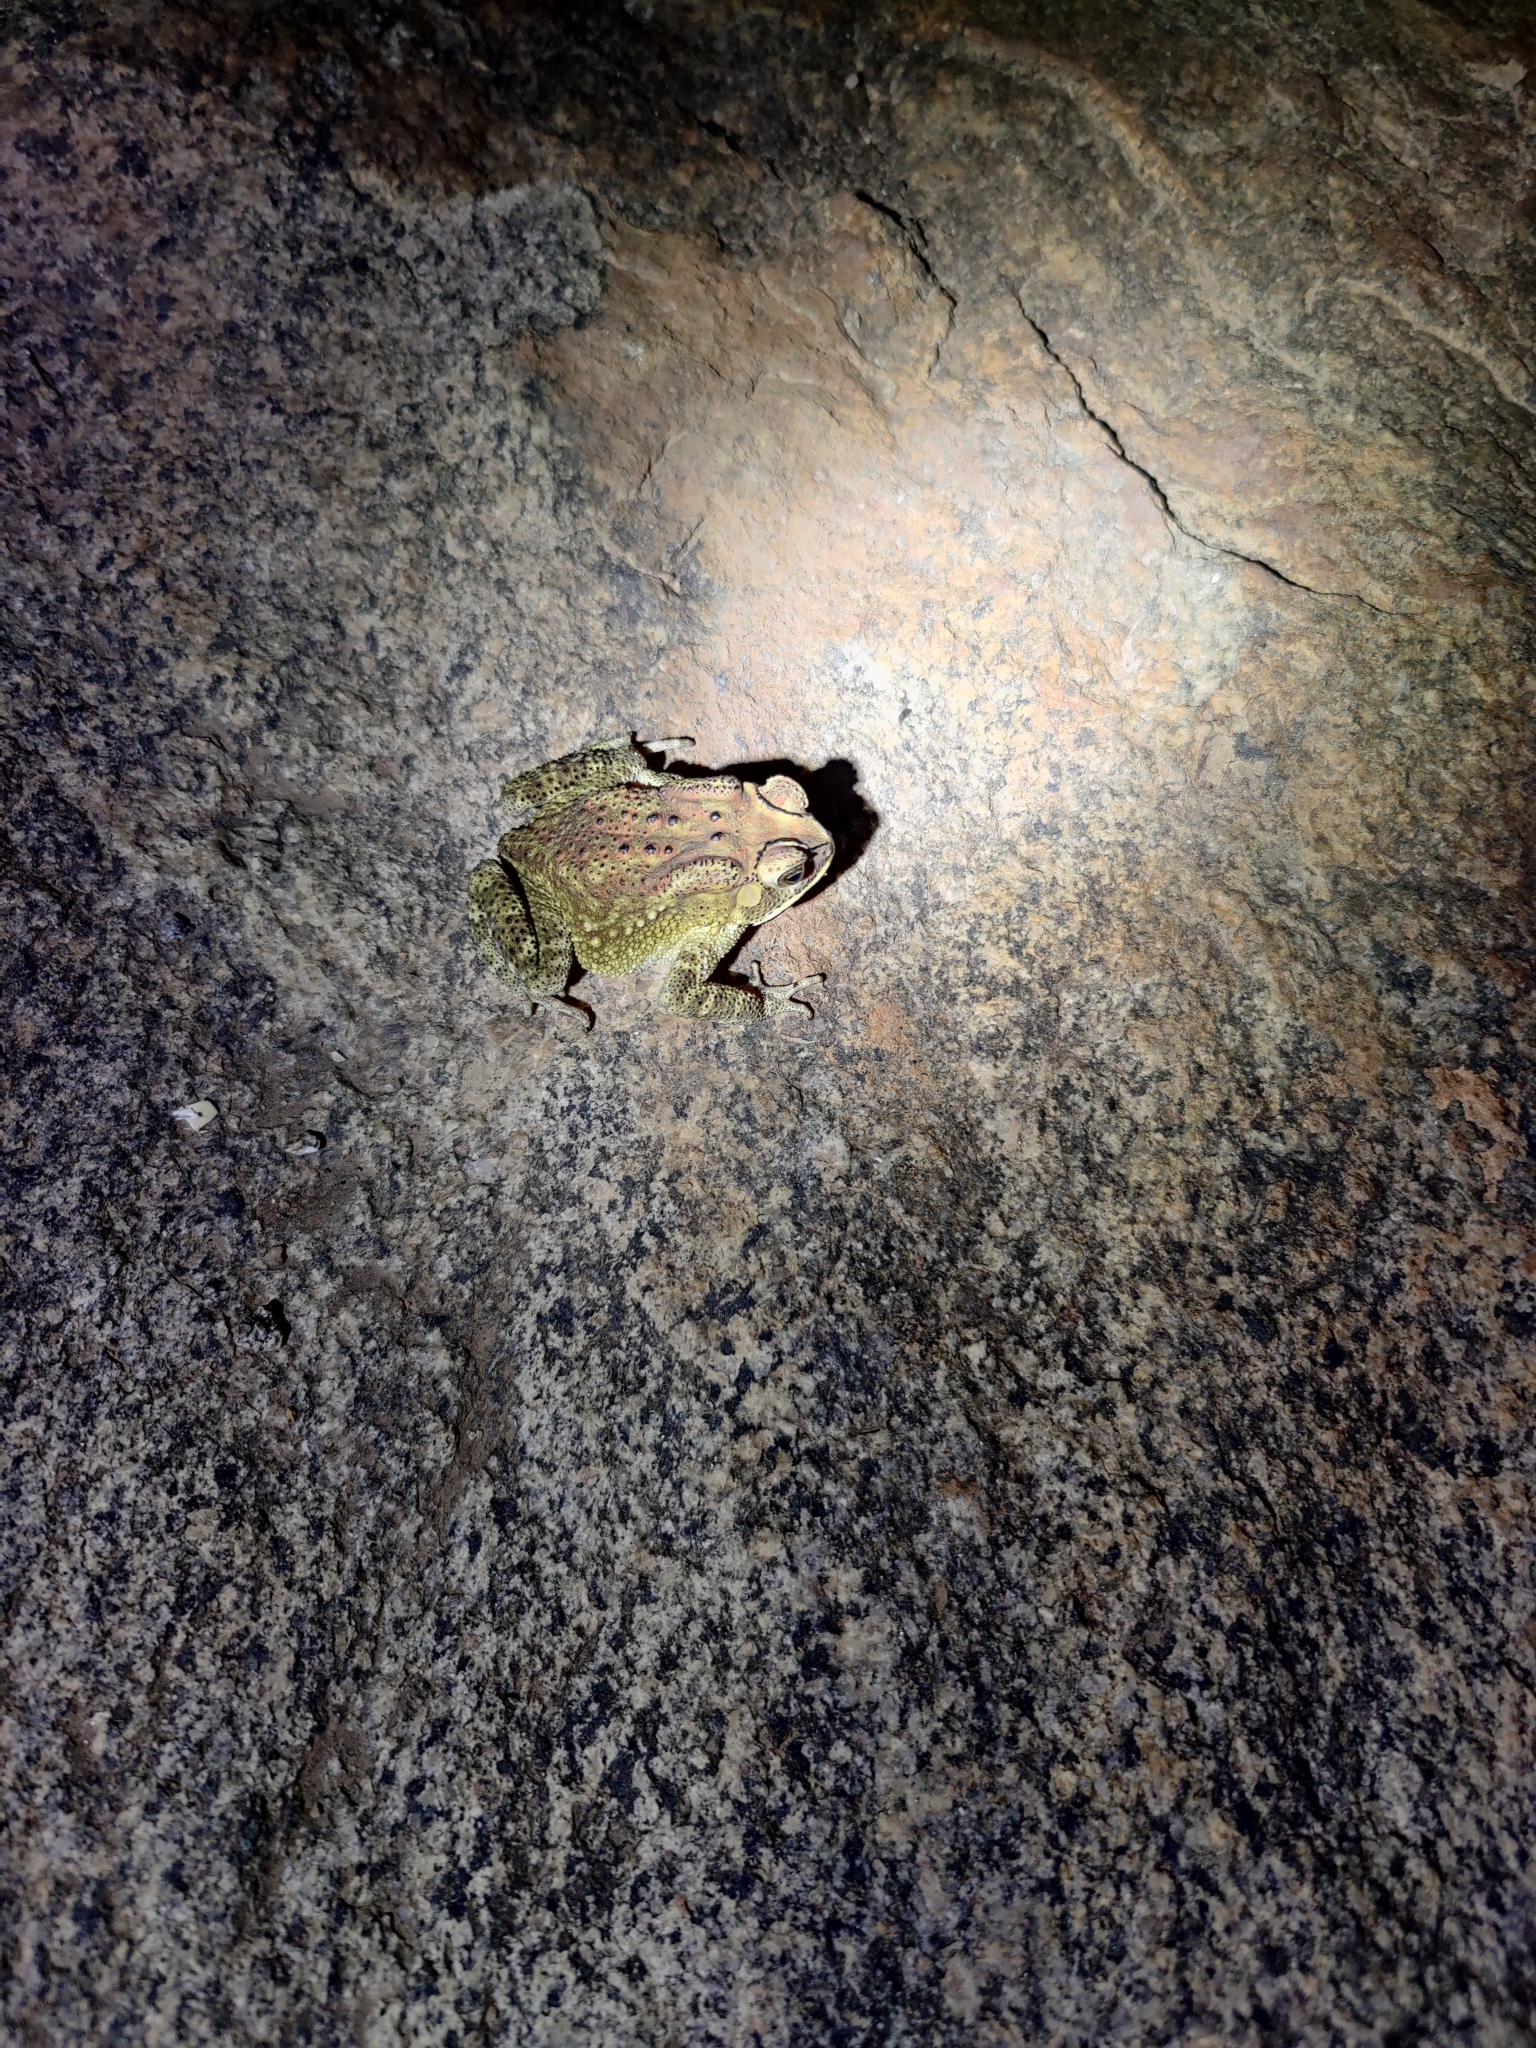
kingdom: Animalia
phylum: Chordata
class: Amphibia
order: Anura
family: Bufonidae
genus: Duttaphrynus
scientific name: Duttaphrynus melanostictus
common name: Common sunda toad
